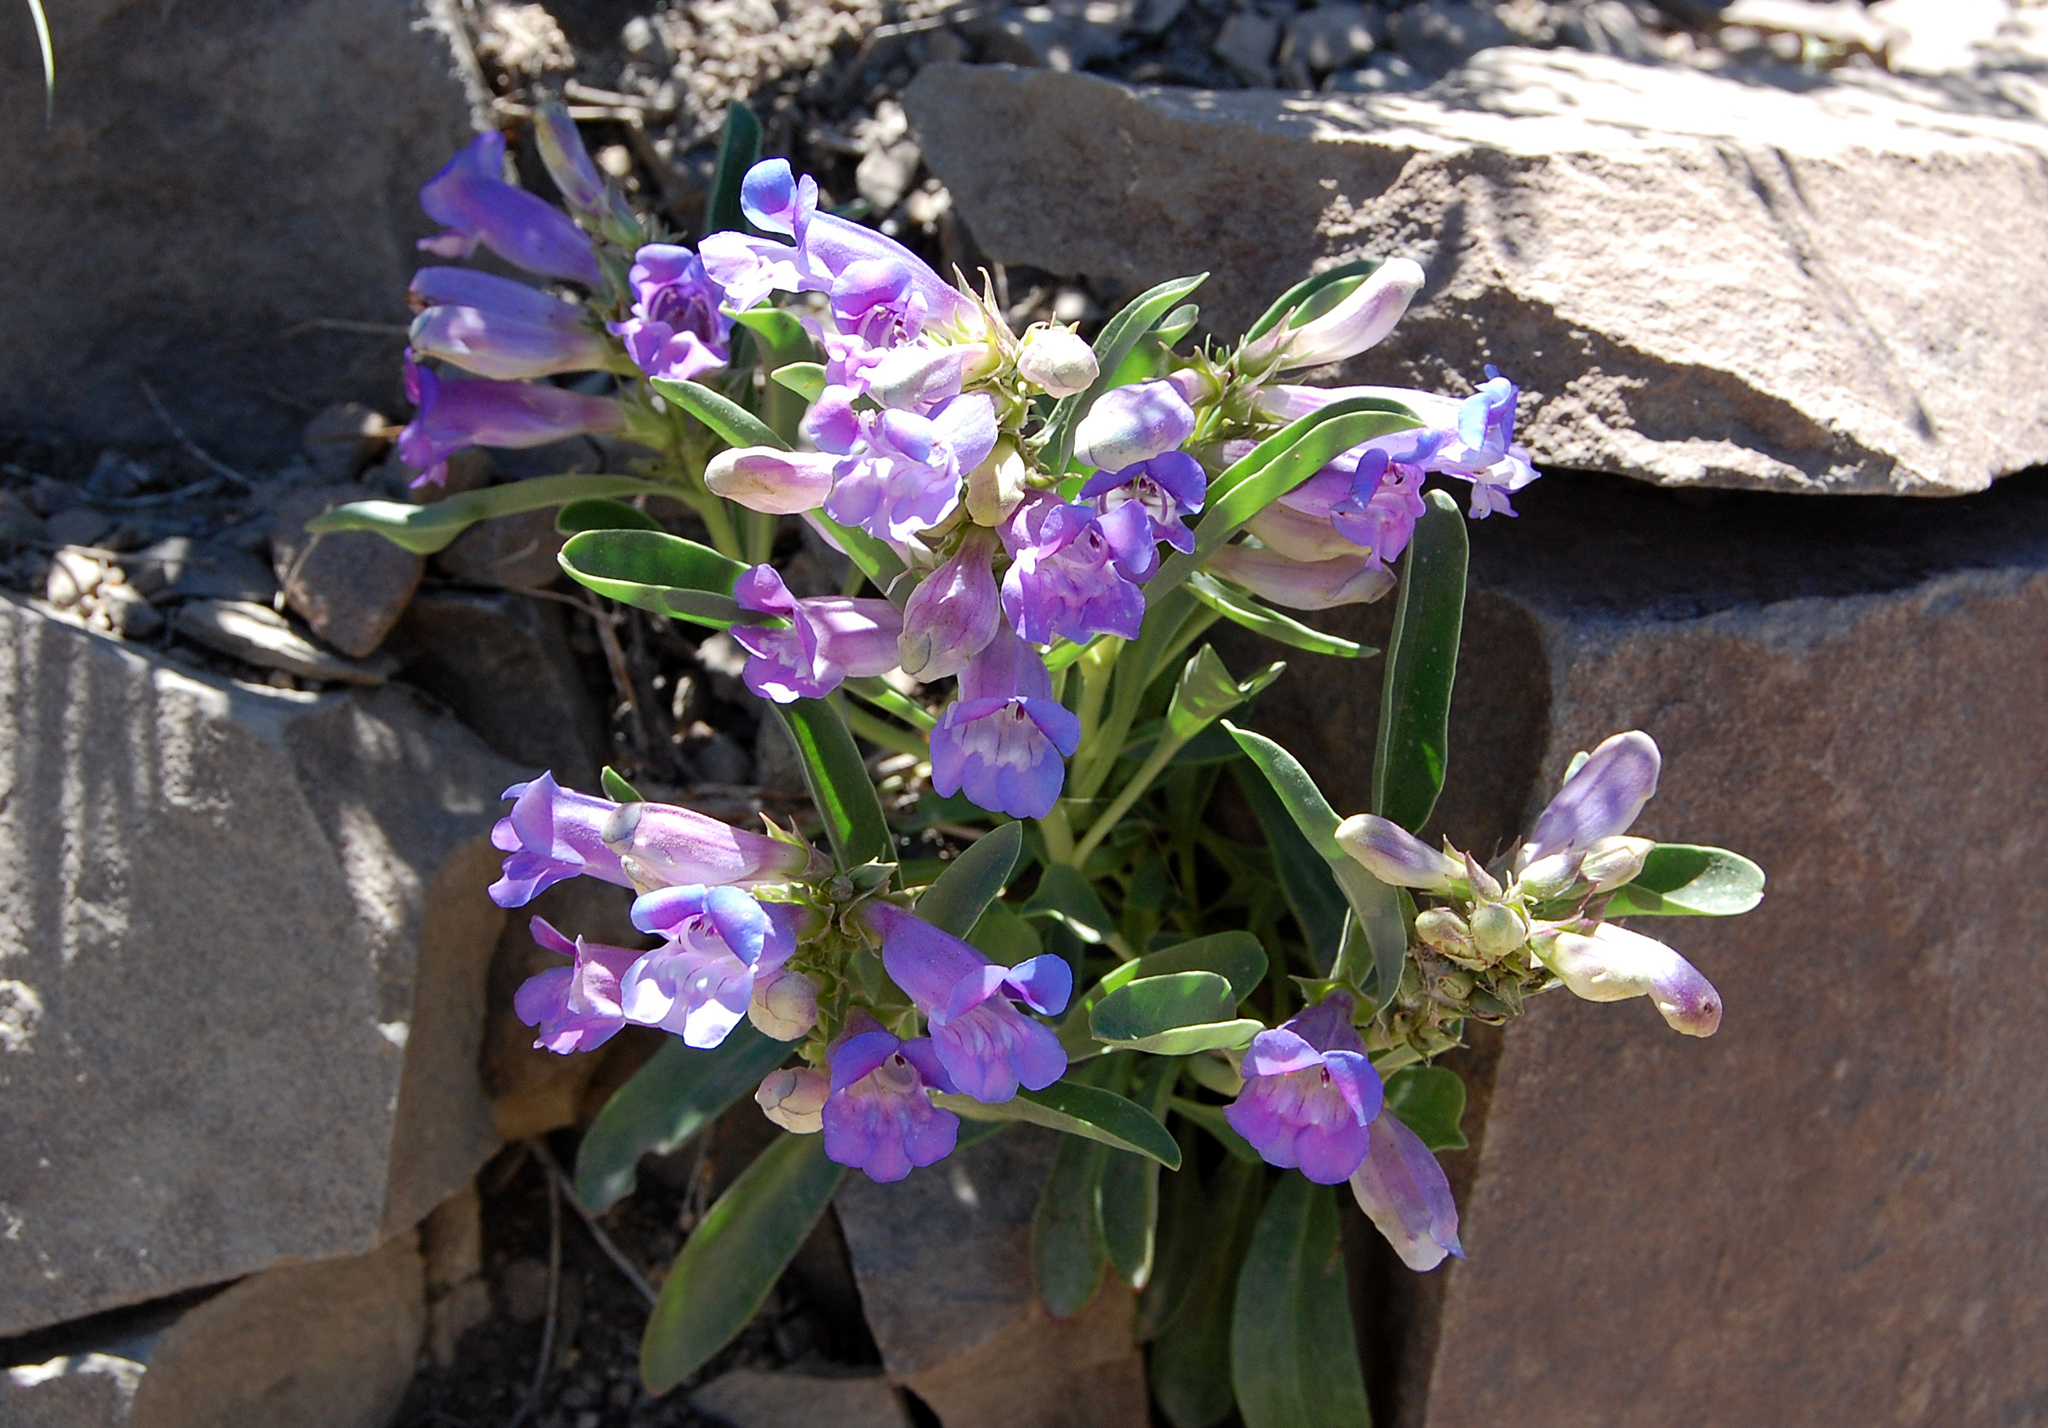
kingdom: Plantae
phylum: Tracheophyta
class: Magnoliopsida
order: Lamiales
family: Plantaginaceae
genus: Penstemon
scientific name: Penstemon speciosus
